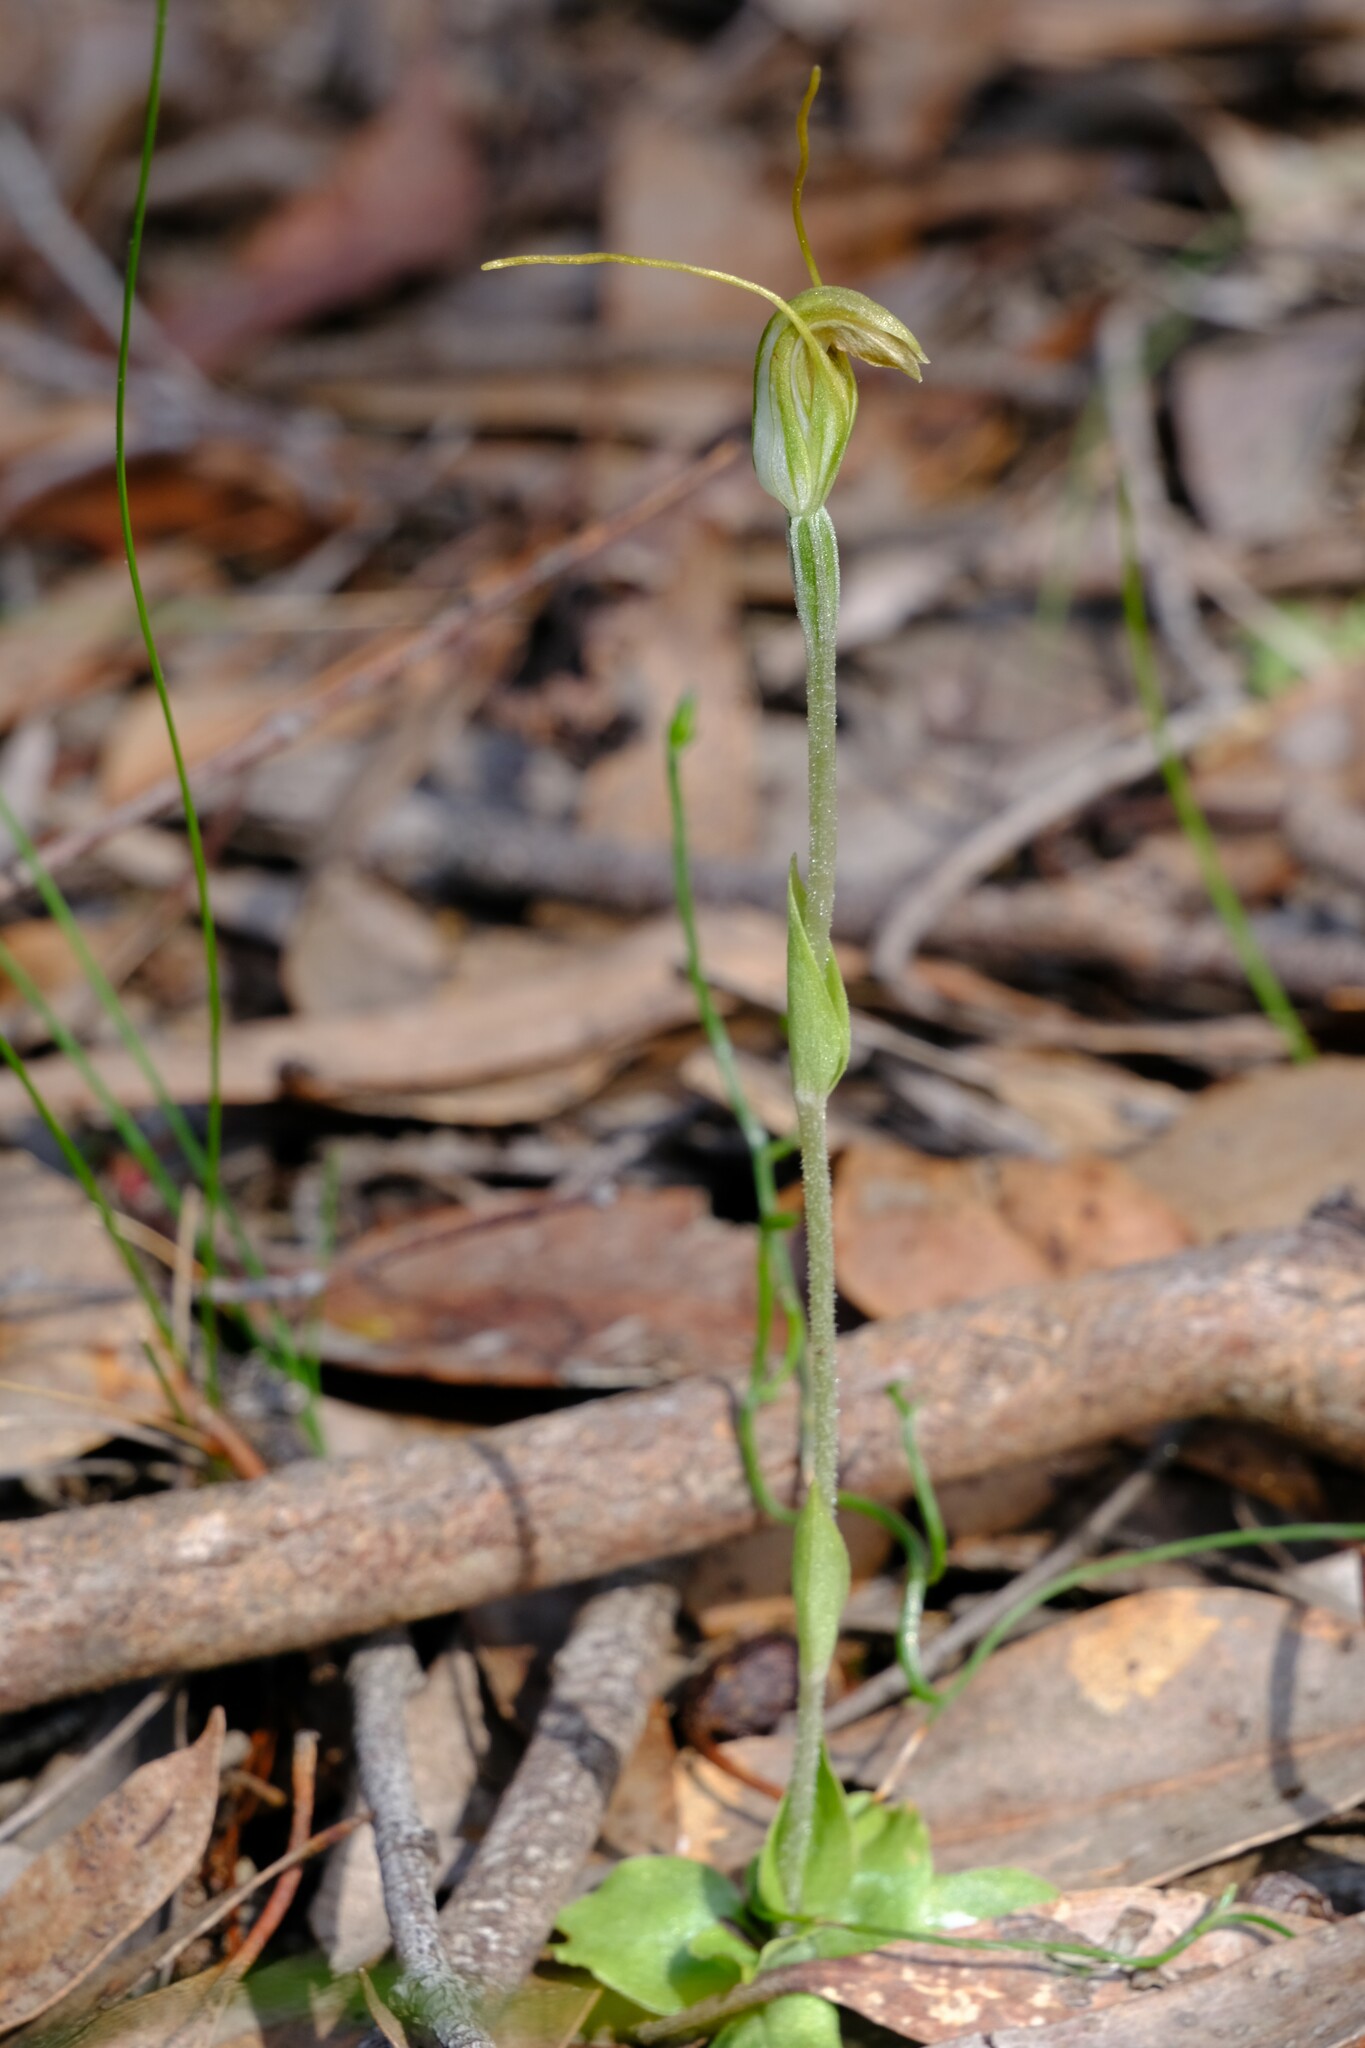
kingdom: Plantae
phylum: Tracheophyta
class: Liliopsida
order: Asparagales
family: Orchidaceae
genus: Pterostylis
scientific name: Pterostylis nana
